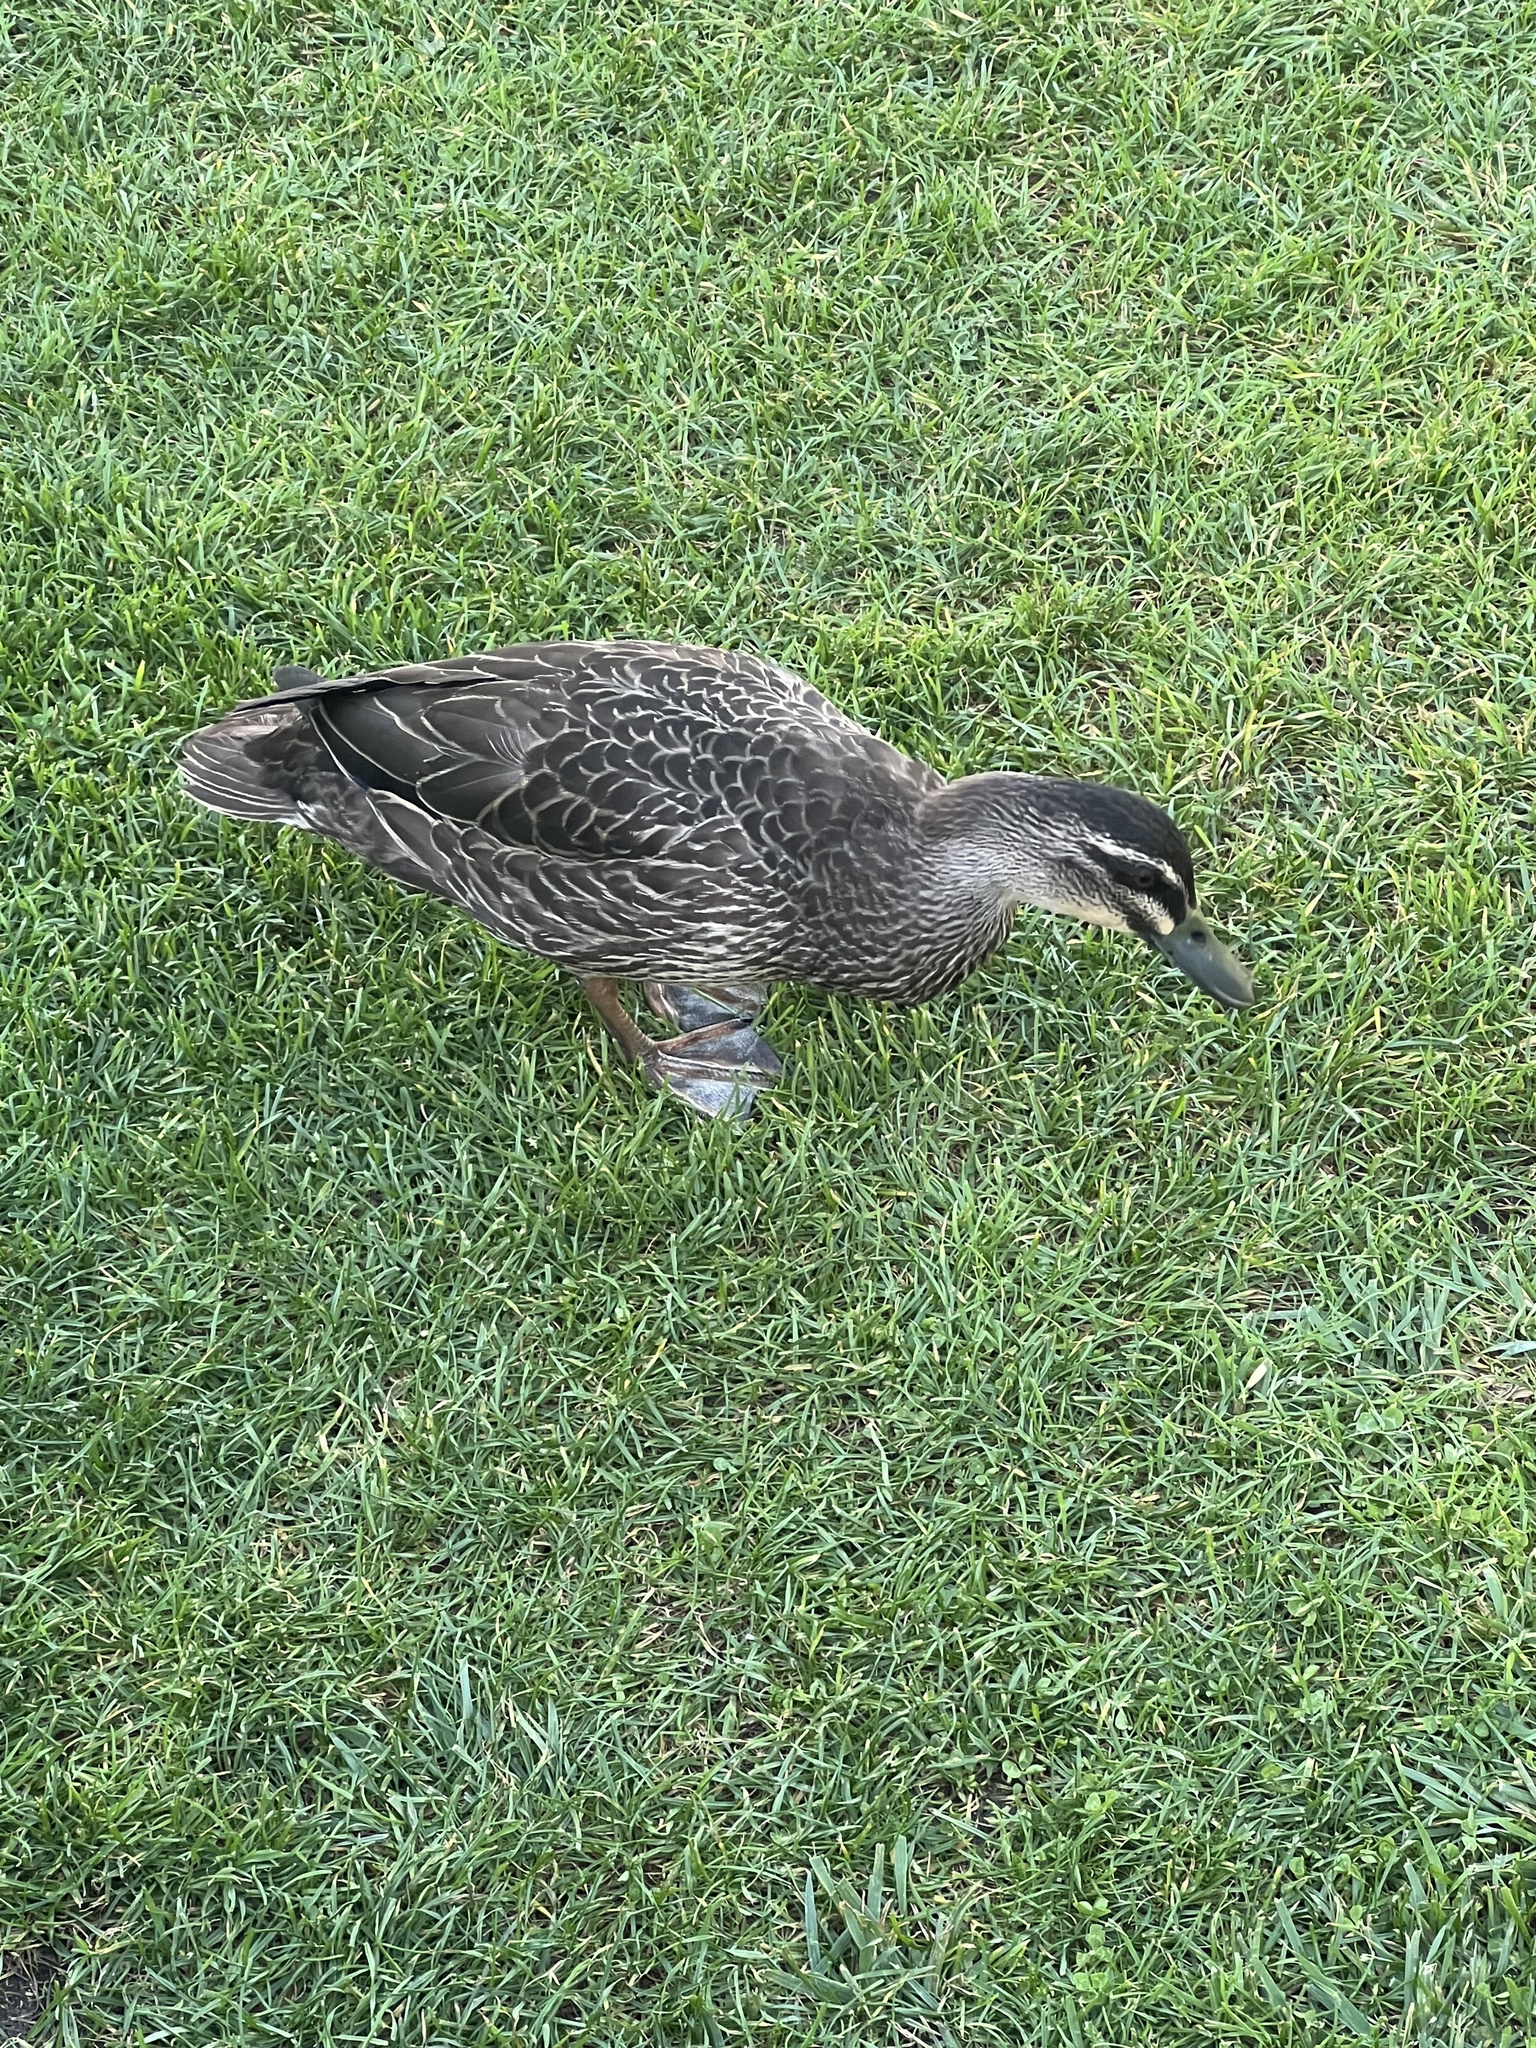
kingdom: Animalia
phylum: Chordata
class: Aves
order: Anseriformes
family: Anatidae
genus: Anas
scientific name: Anas
